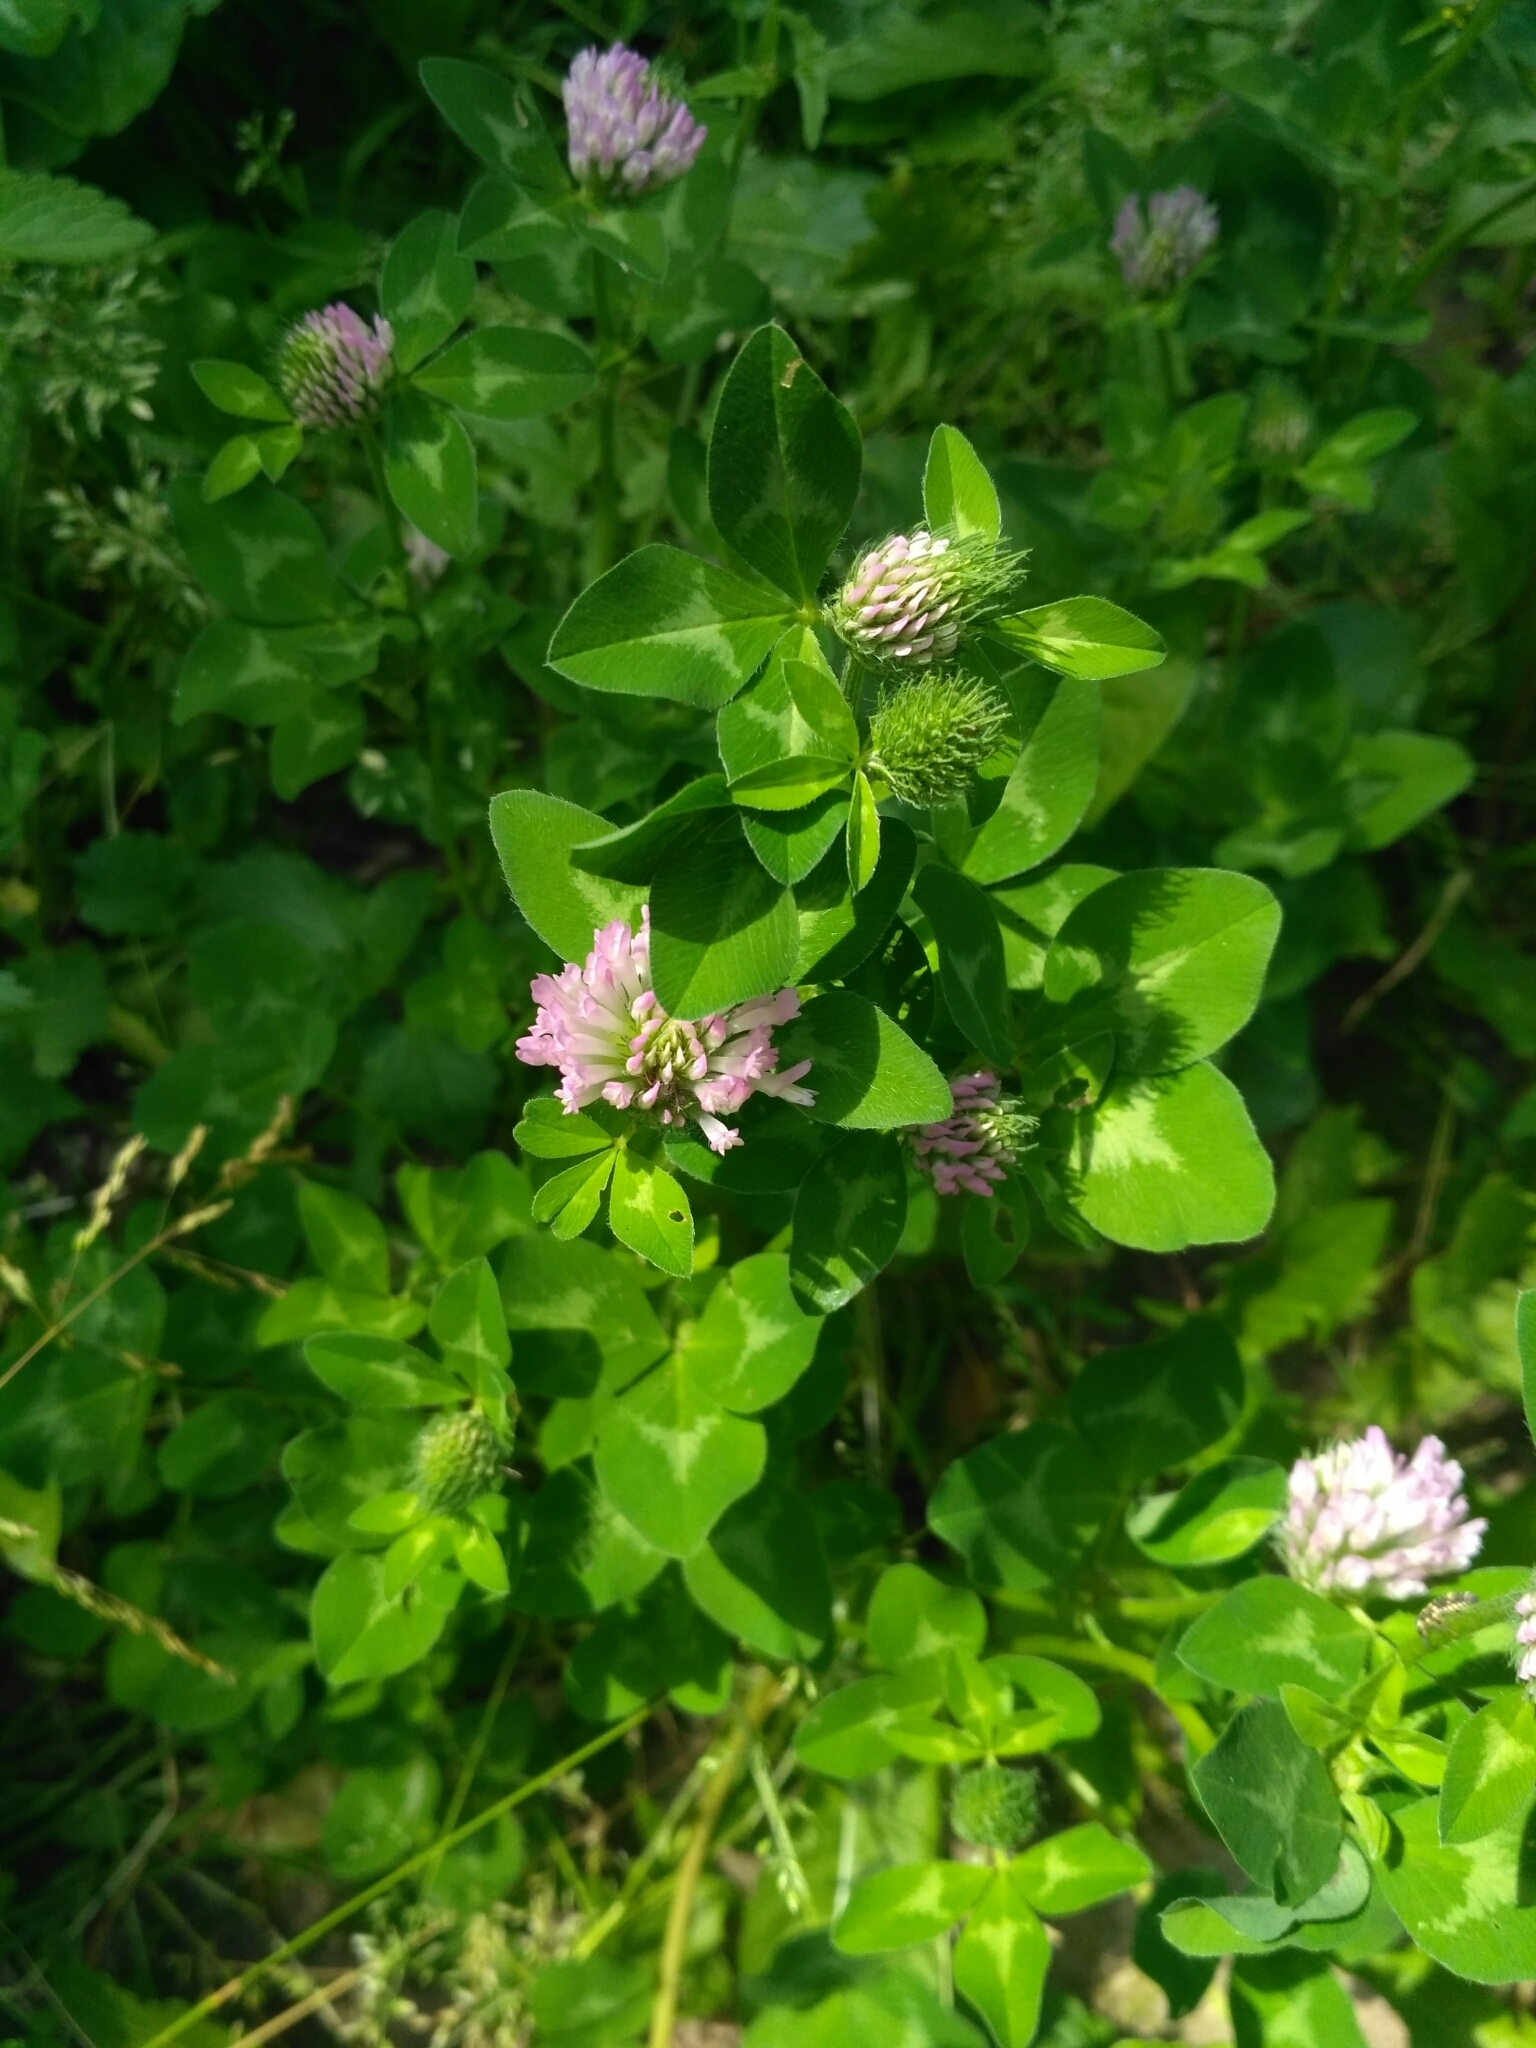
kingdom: Plantae
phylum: Tracheophyta
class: Magnoliopsida
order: Fabales
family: Fabaceae
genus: Trifolium
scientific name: Trifolium pratense
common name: Red clover
